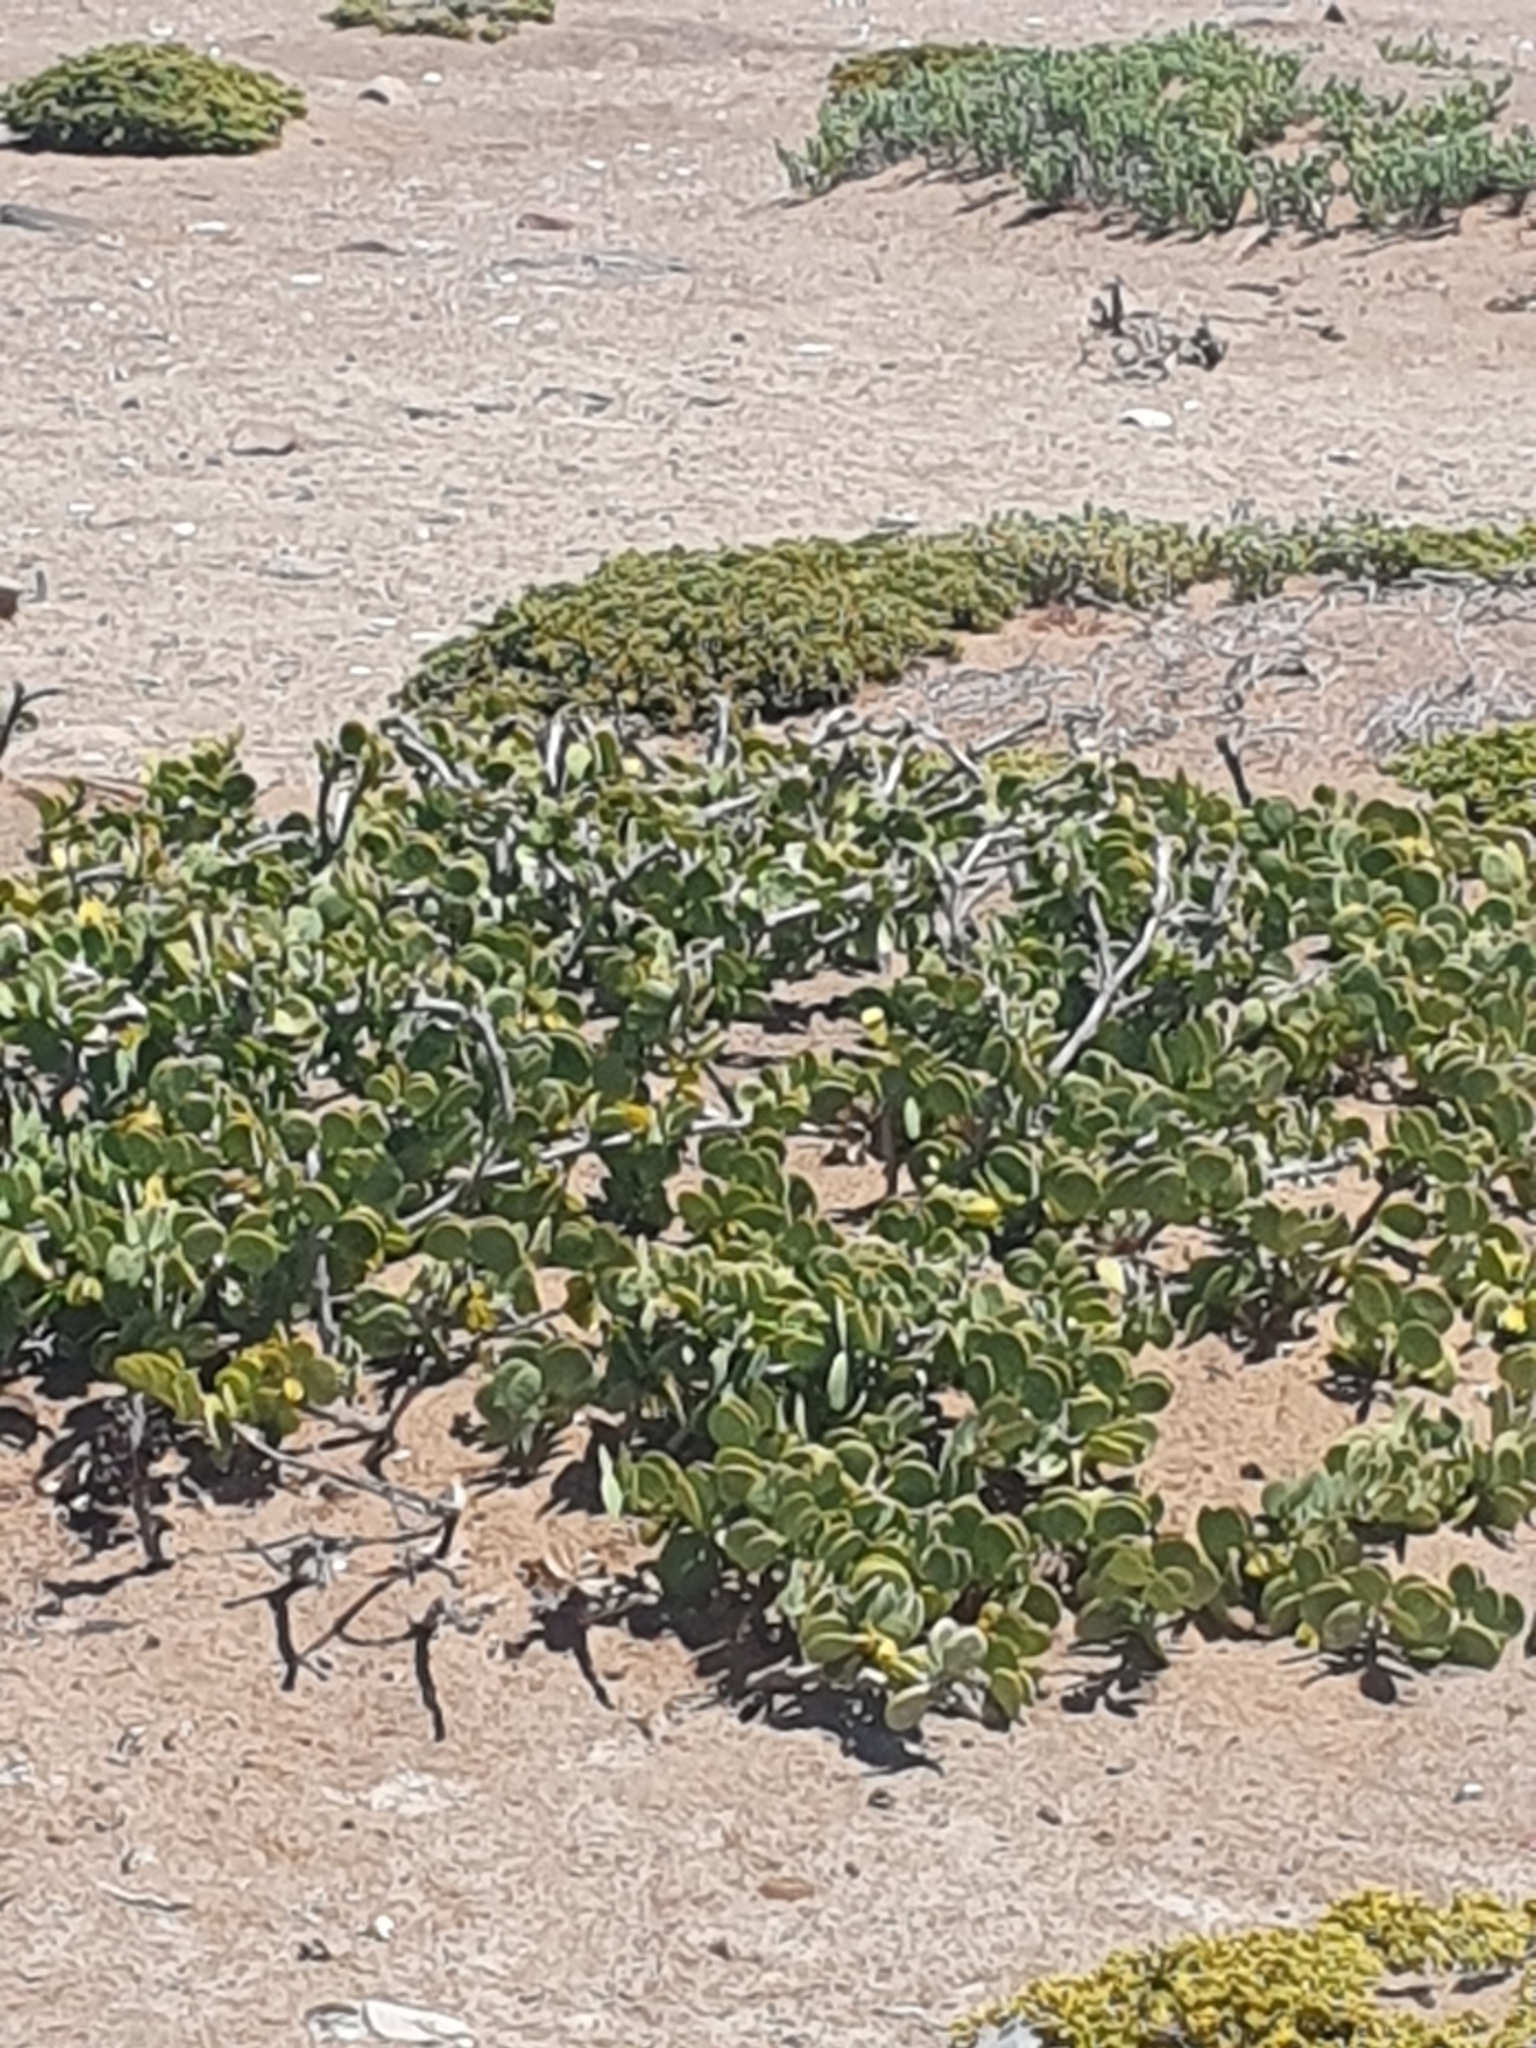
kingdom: Plantae
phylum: Tracheophyta
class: Magnoliopsida
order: Zygophyllales
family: Zygophyllaceae
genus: Tetraena
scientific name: Tetraena stapfii
